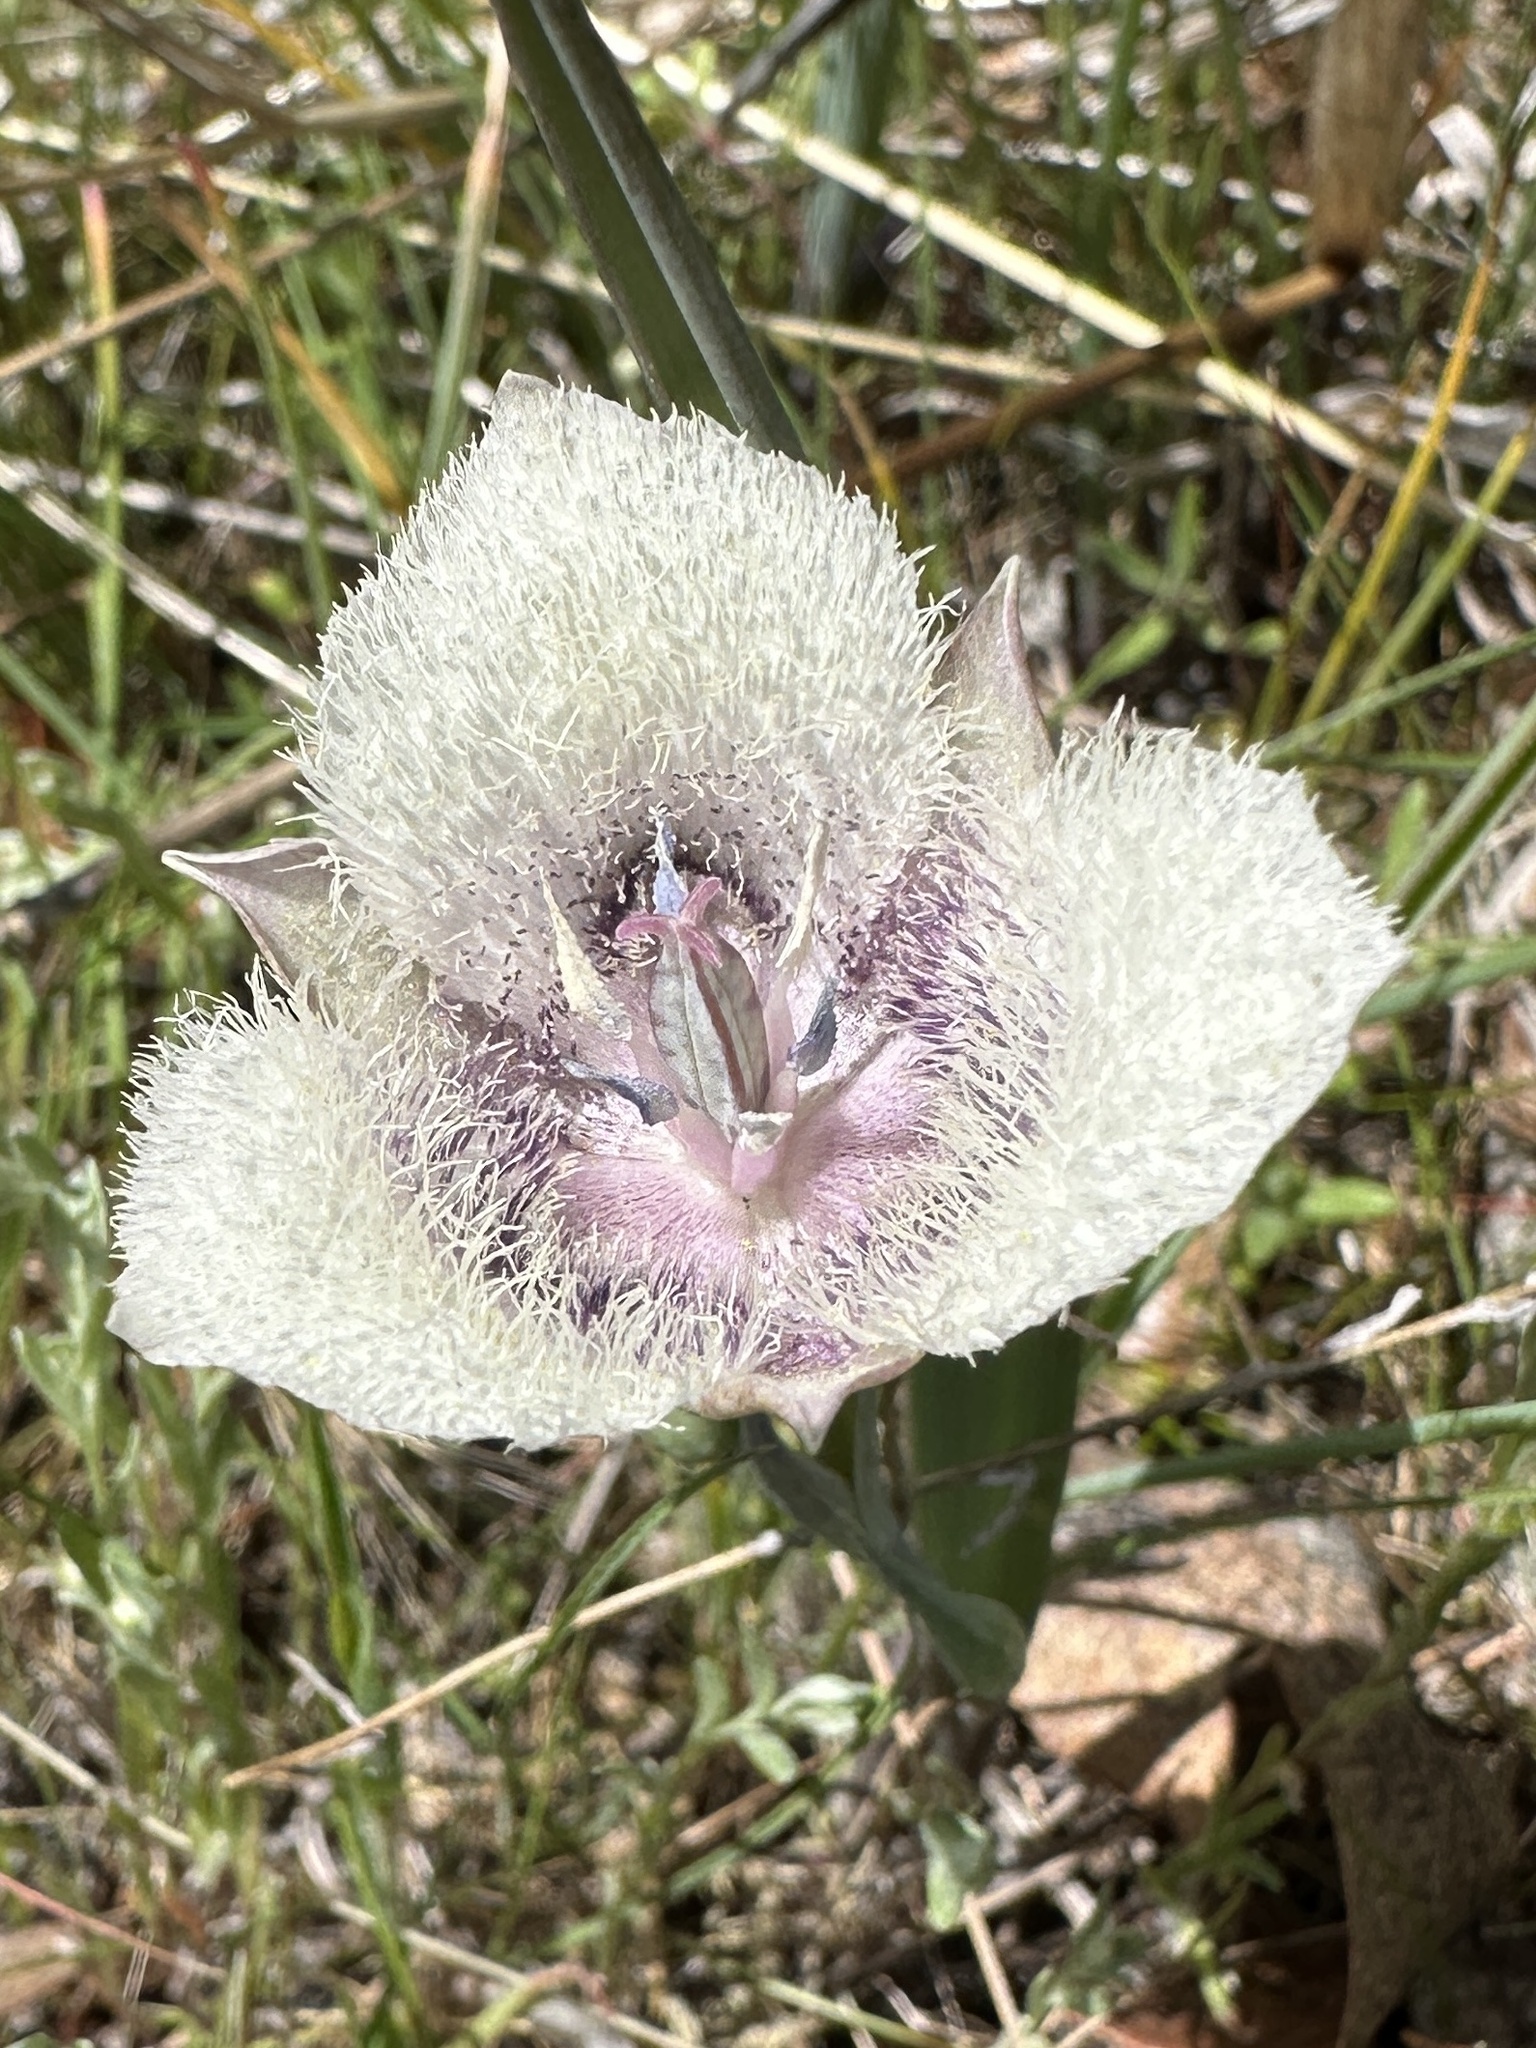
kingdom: Plantae
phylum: Tracheophyta
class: Liliopsida
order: Liliales
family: Liliaceae
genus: Calochortus
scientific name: Calochortus tolmiei
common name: Pussy-ears
